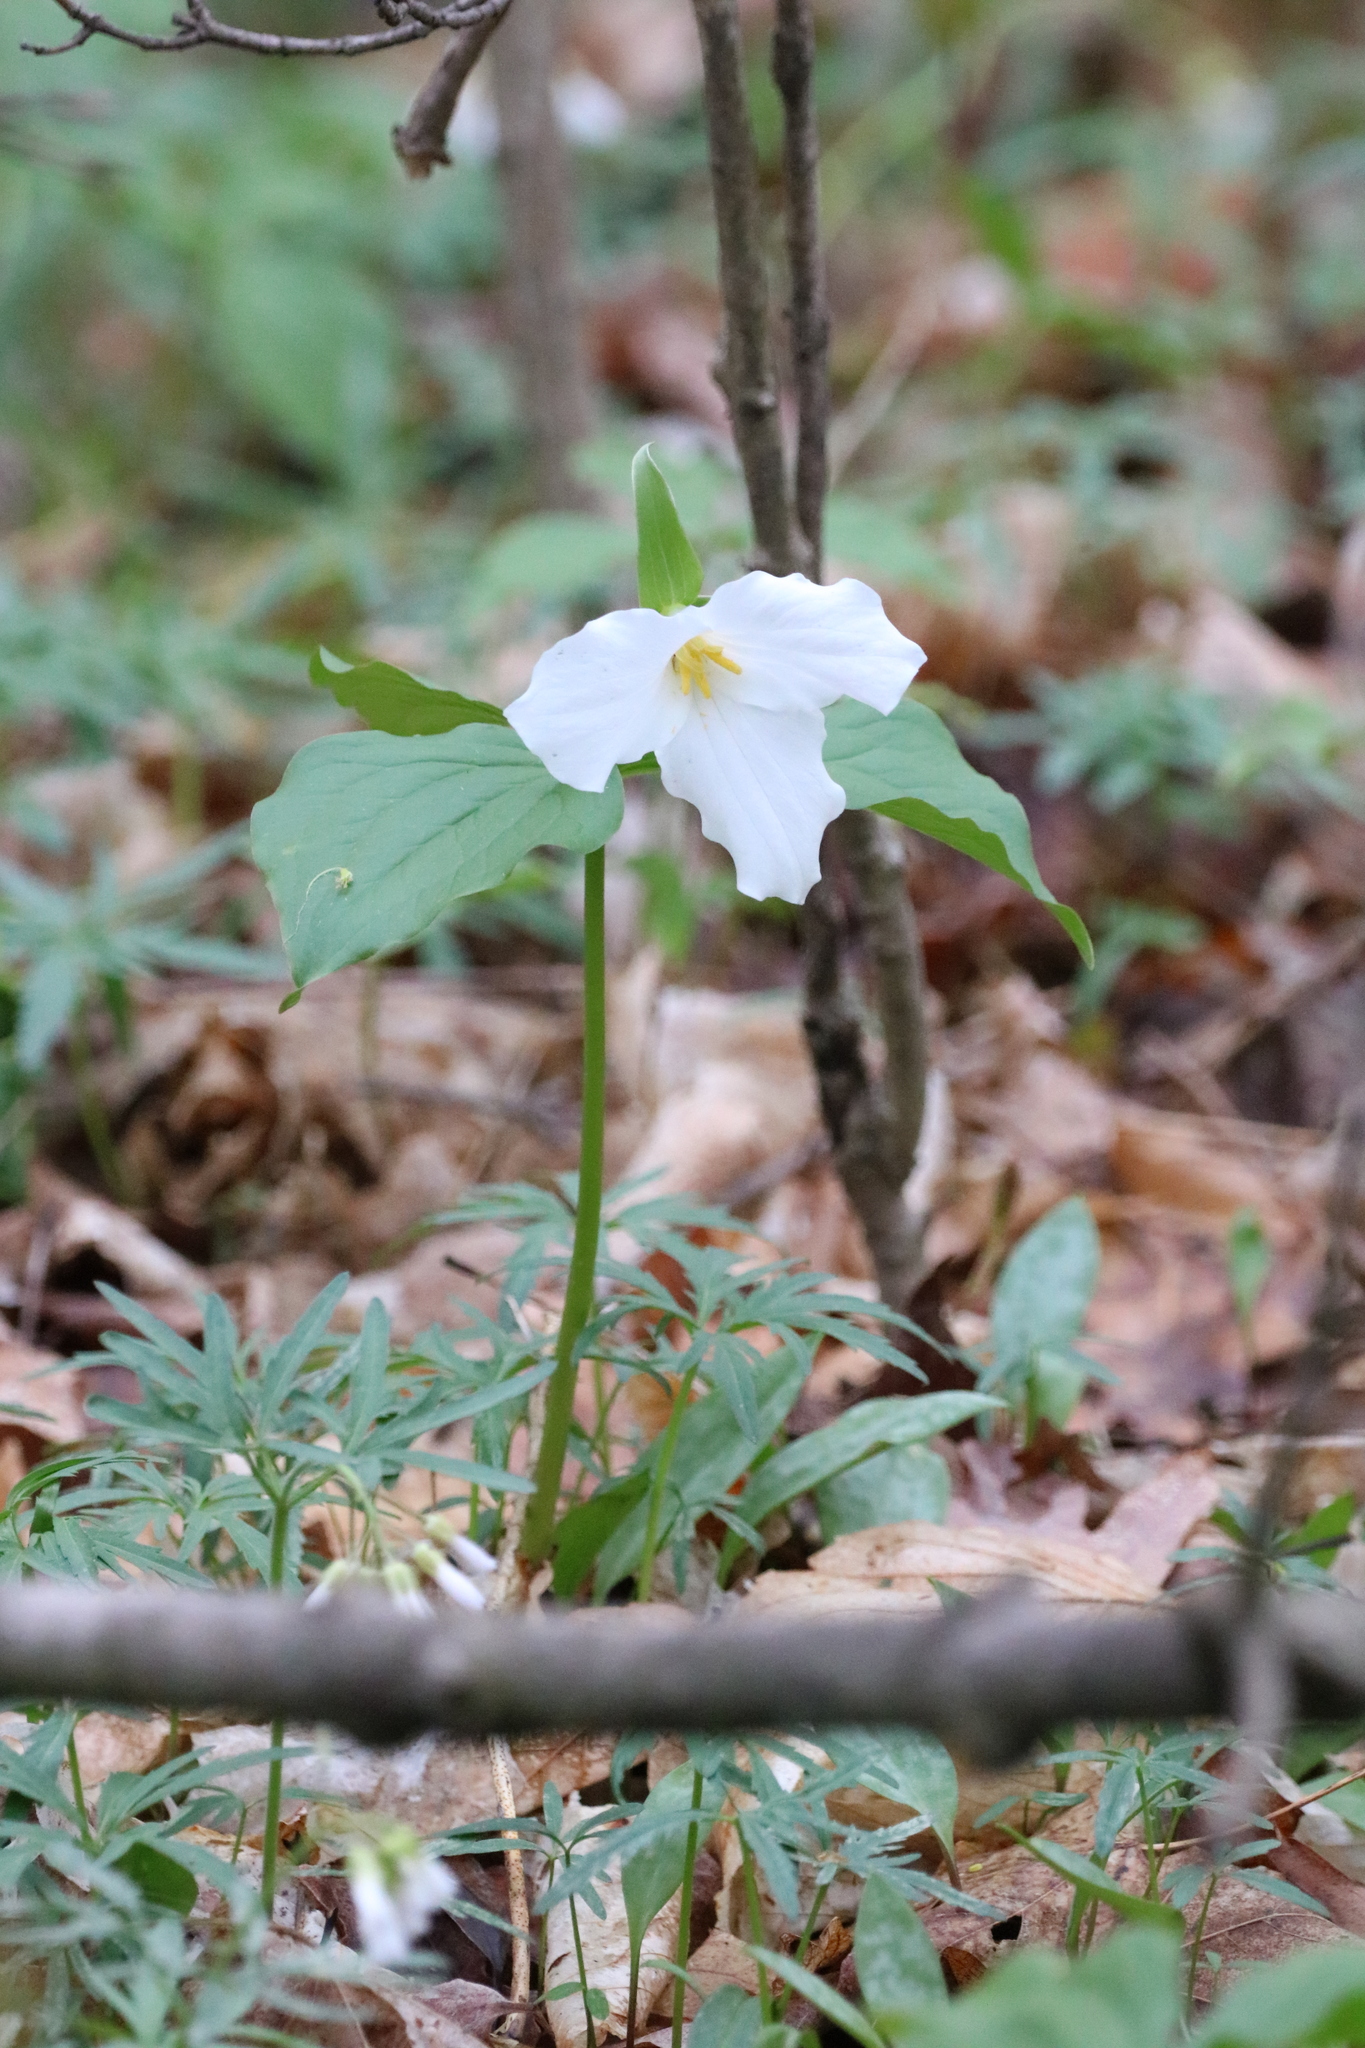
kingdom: Plantae
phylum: Tracheophyta
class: Liliopsida
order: Liliales
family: Melanthiaceae
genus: Trillium
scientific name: Trillium grandiflorum
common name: Great white trillium
